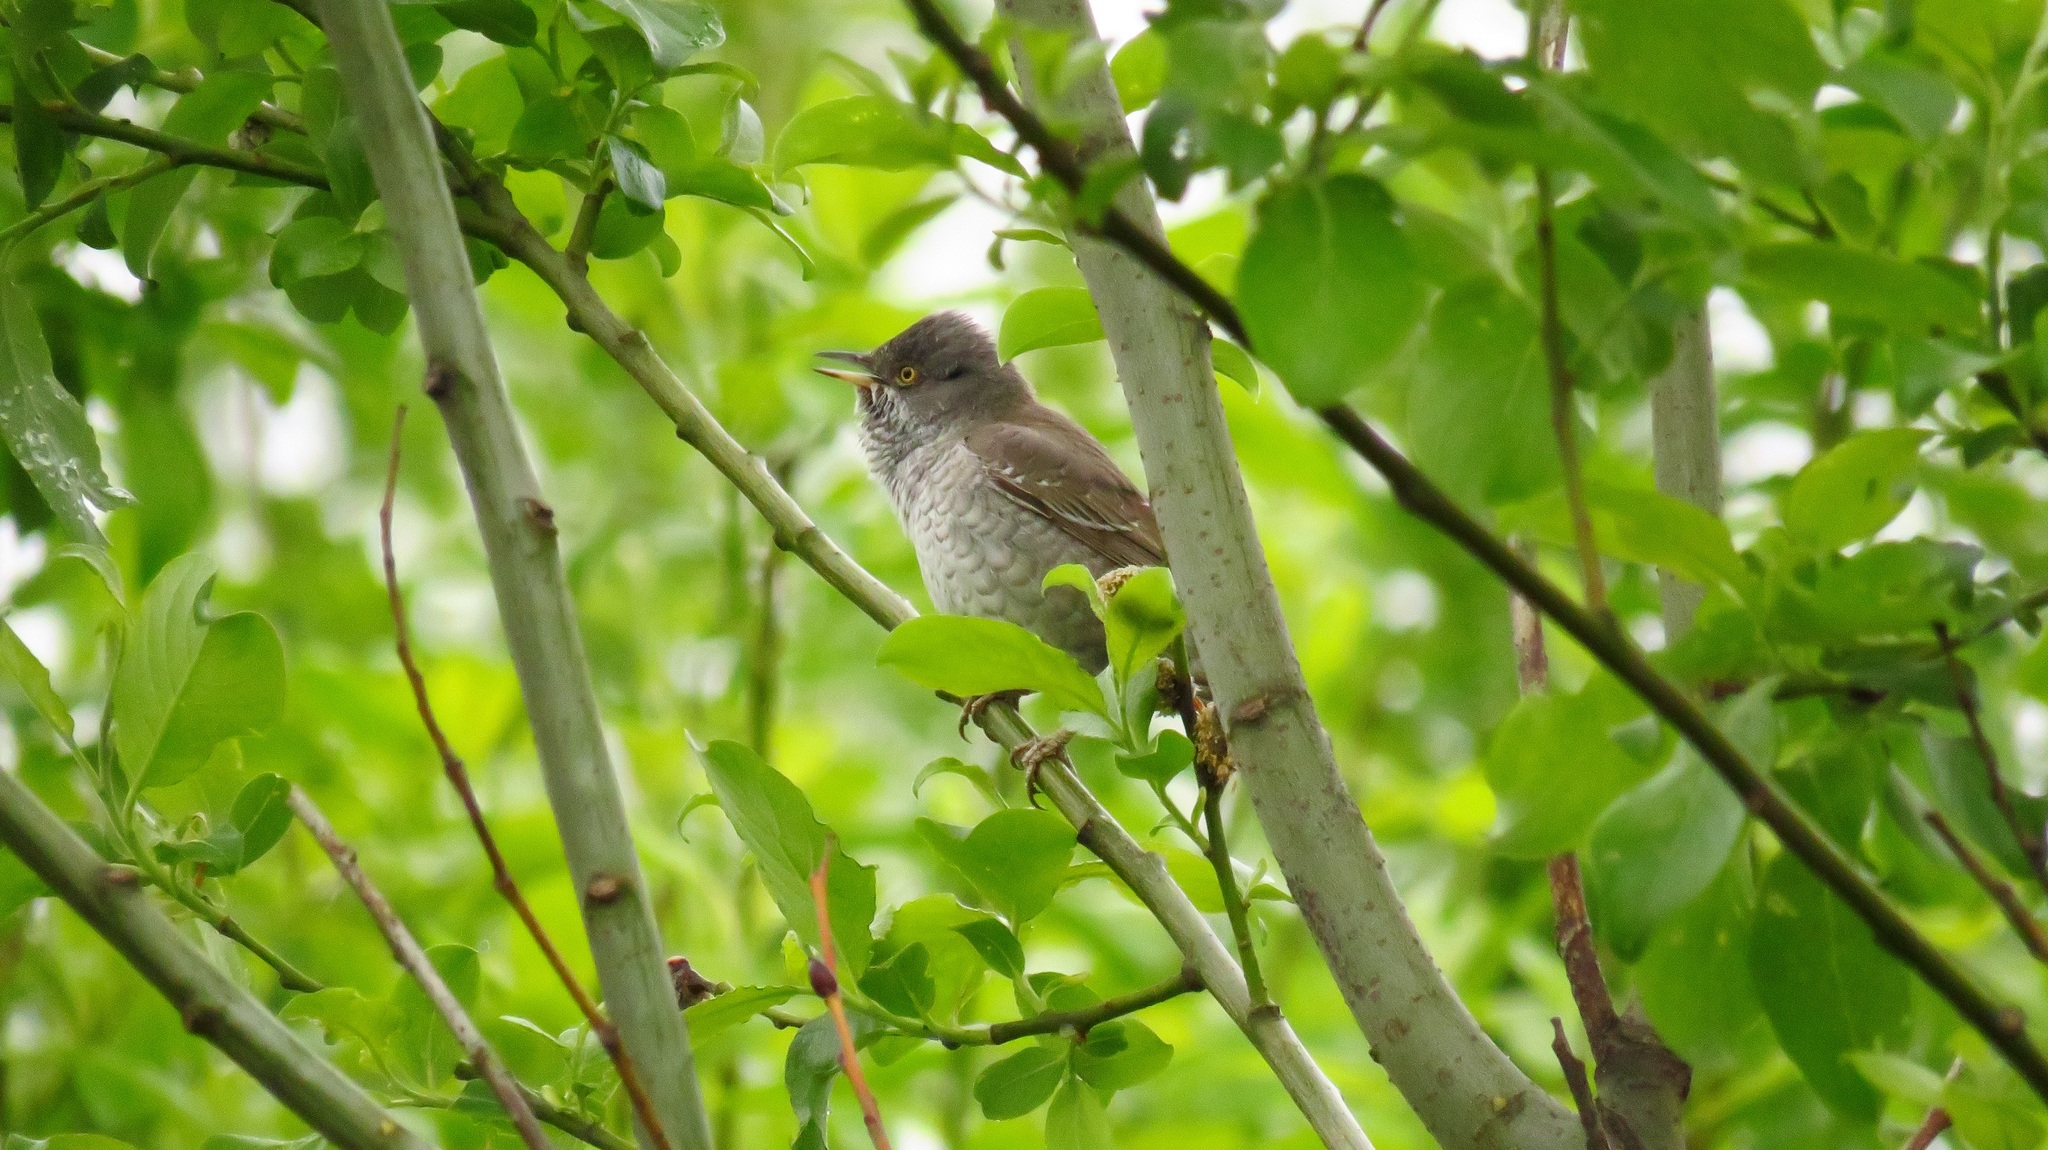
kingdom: Animalia
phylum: Chordata
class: Aves
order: Passeriformes
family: Sylviidae
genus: Sylvia
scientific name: Sylvia nisoria
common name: Barred warbler
